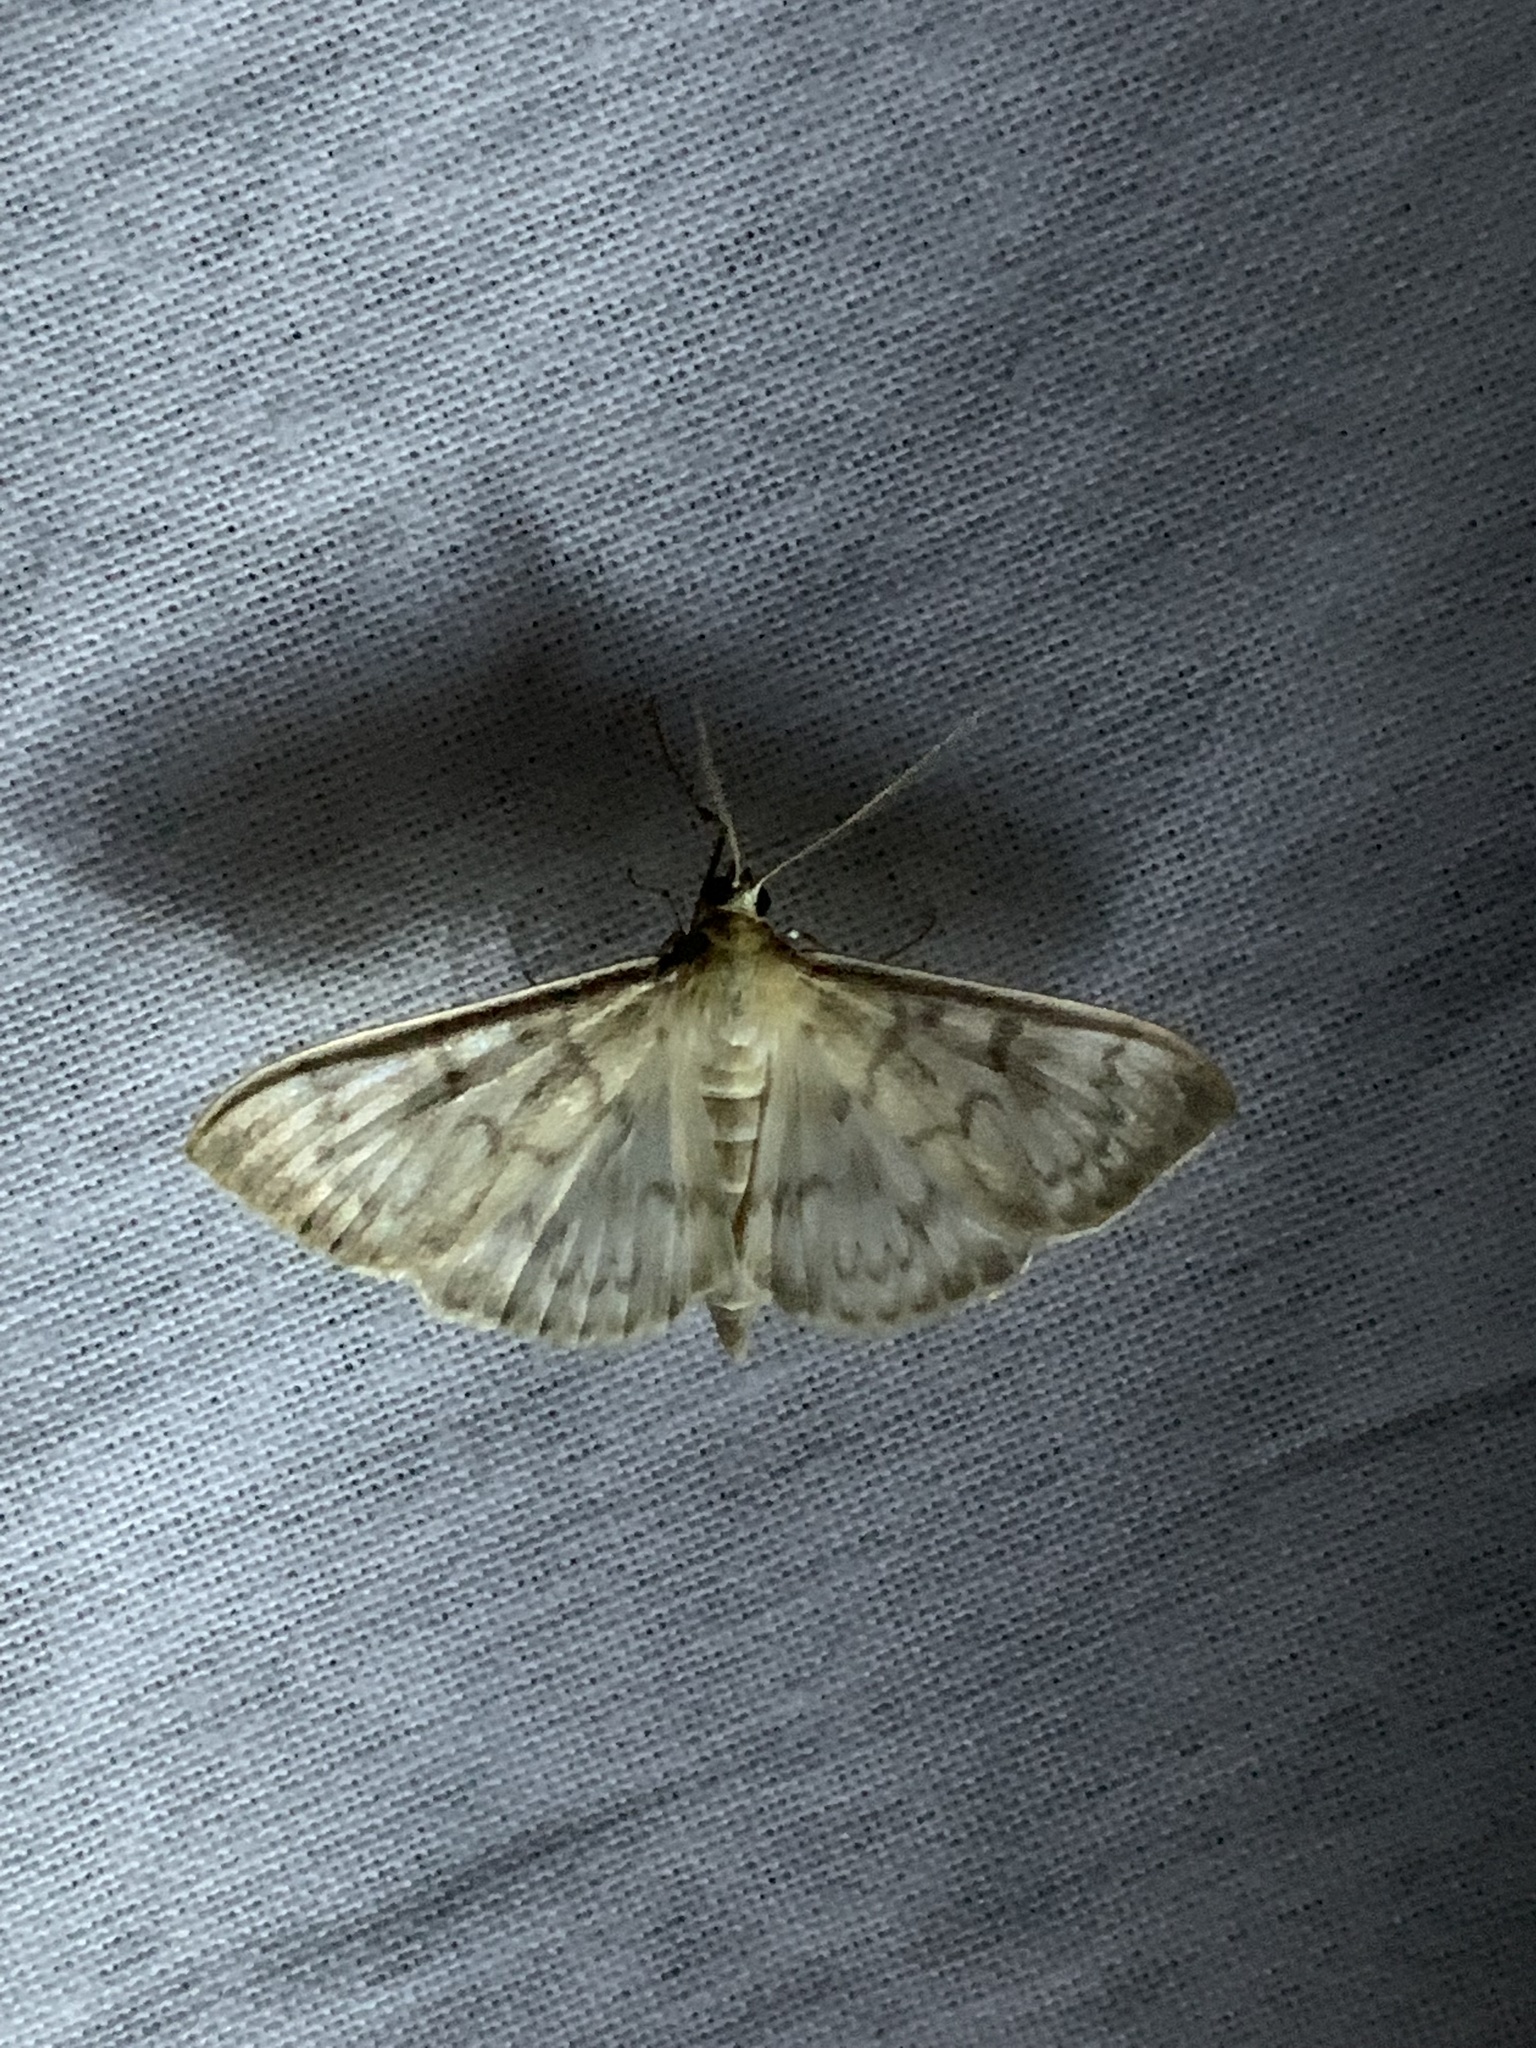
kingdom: Animalia
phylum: Arthropoda
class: Insecta
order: Lepidoptera
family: Crambidae
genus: Patania
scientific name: Patania ruralis
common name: Mother of pearl
